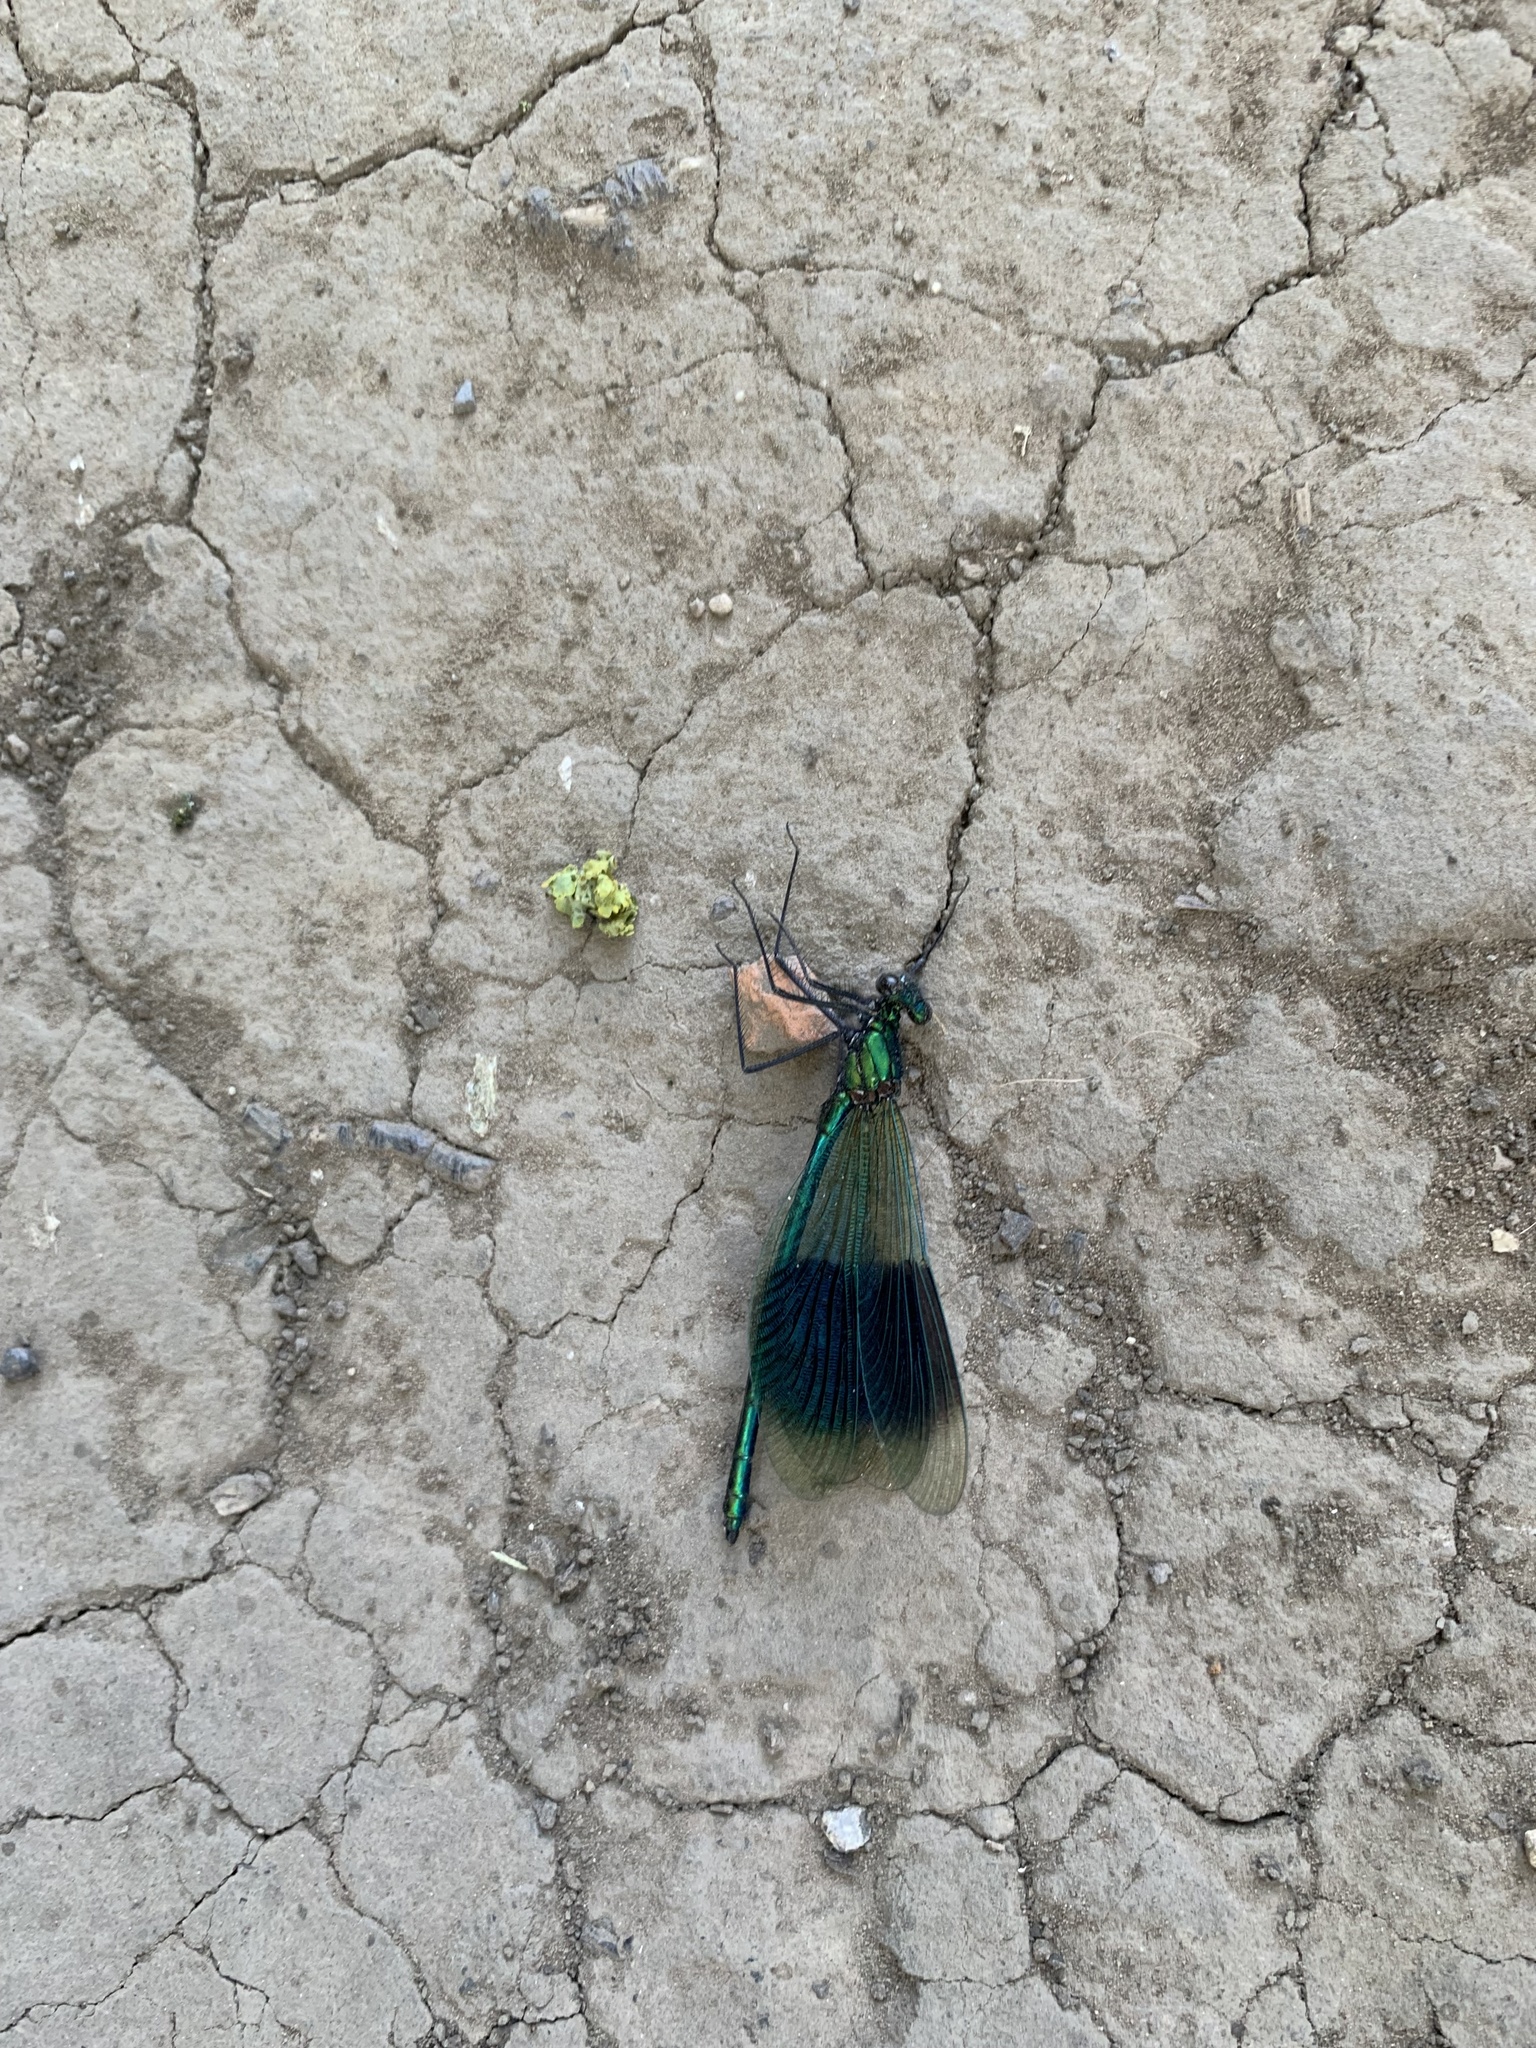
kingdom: Animalia
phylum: Arthropoda
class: Insecta
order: Odonata
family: Calopterygidae
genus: Calopteryx
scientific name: Calopteryx splendens
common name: Banded demoiselle
